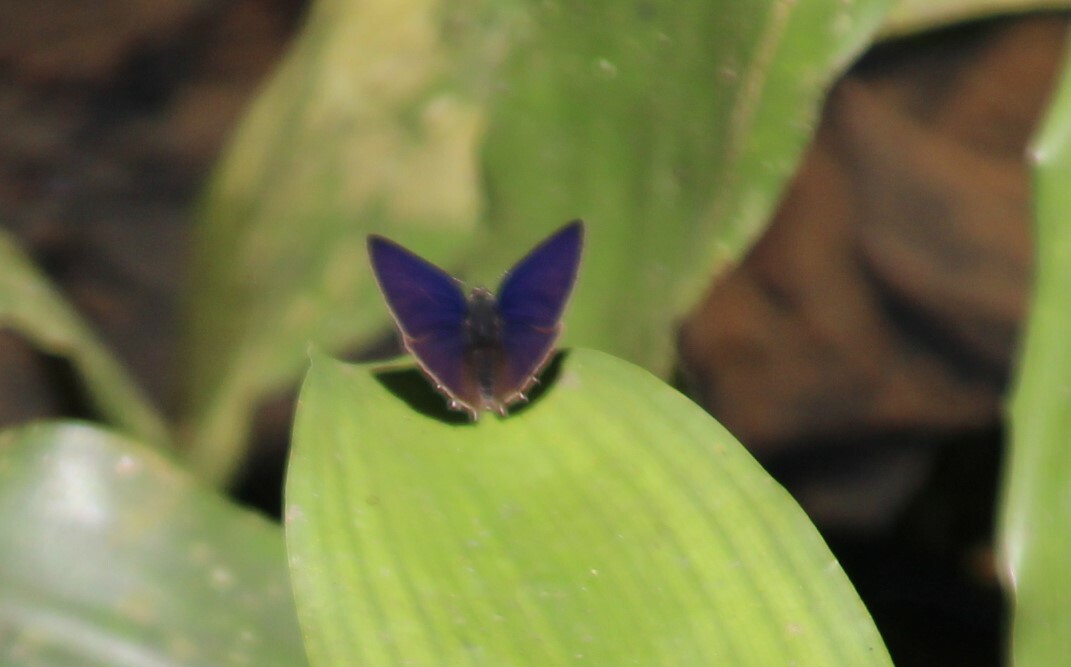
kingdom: Animalia
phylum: Arthropoda
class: Insecta
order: Lepidoptera
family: Lycaenidae
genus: Anthene
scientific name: Anthene ligures
